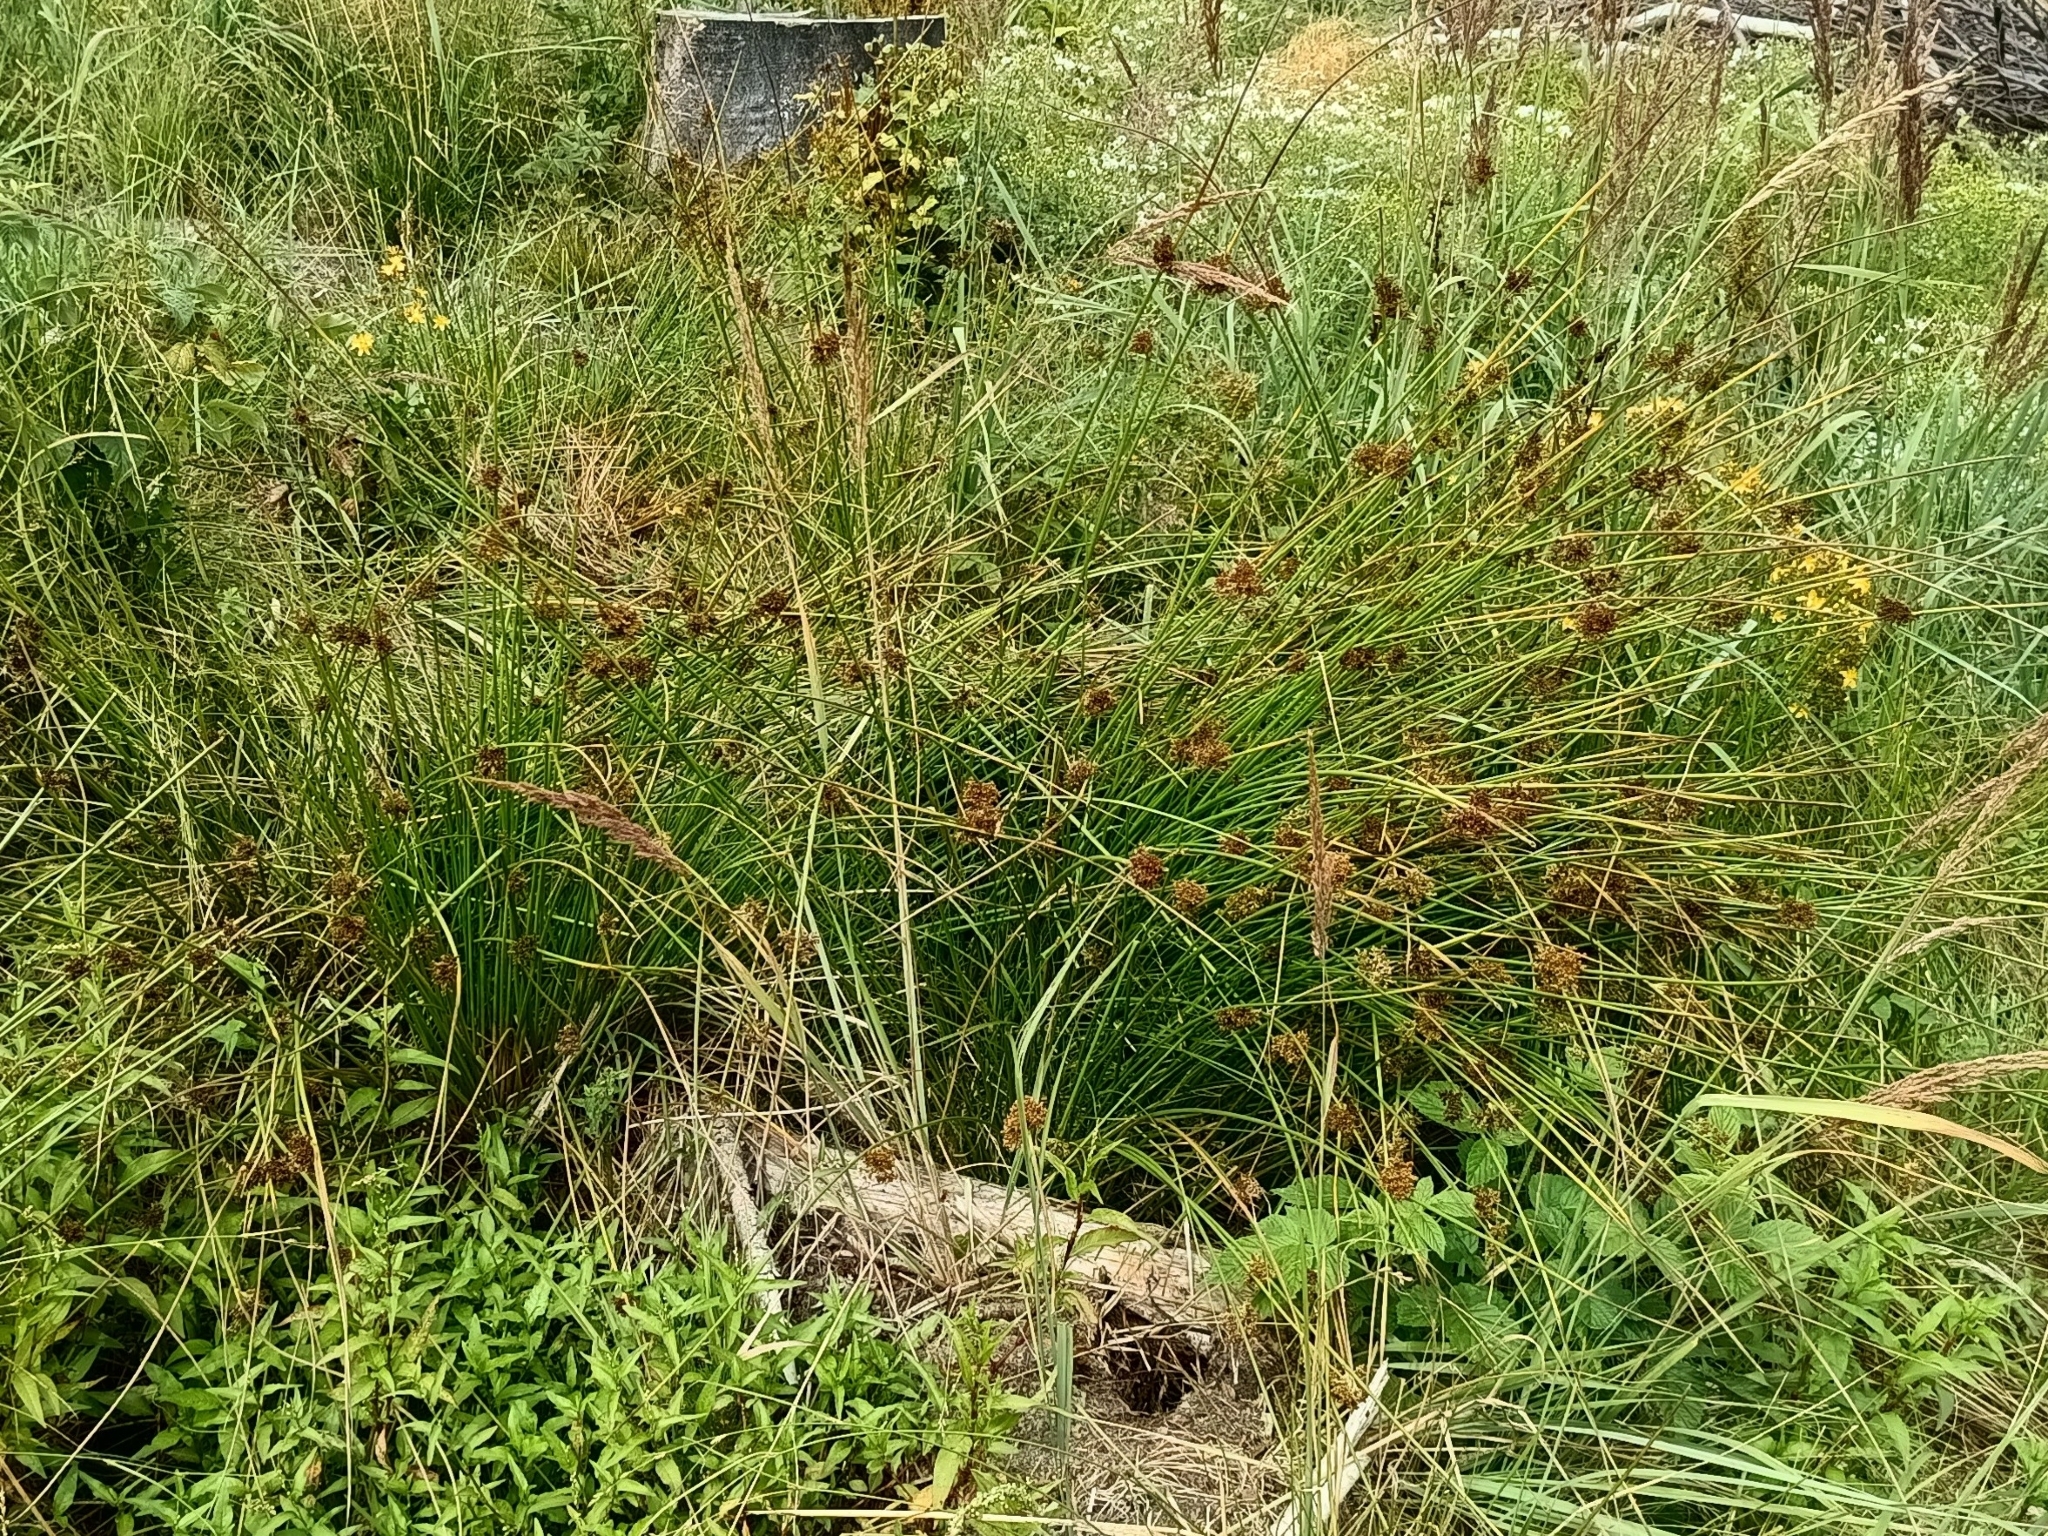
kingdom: Plantae
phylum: Tracheophyta
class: Liliopsida
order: Poales
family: Juncaceae
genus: Juncus
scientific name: Juncus effusus
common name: Soft rush
